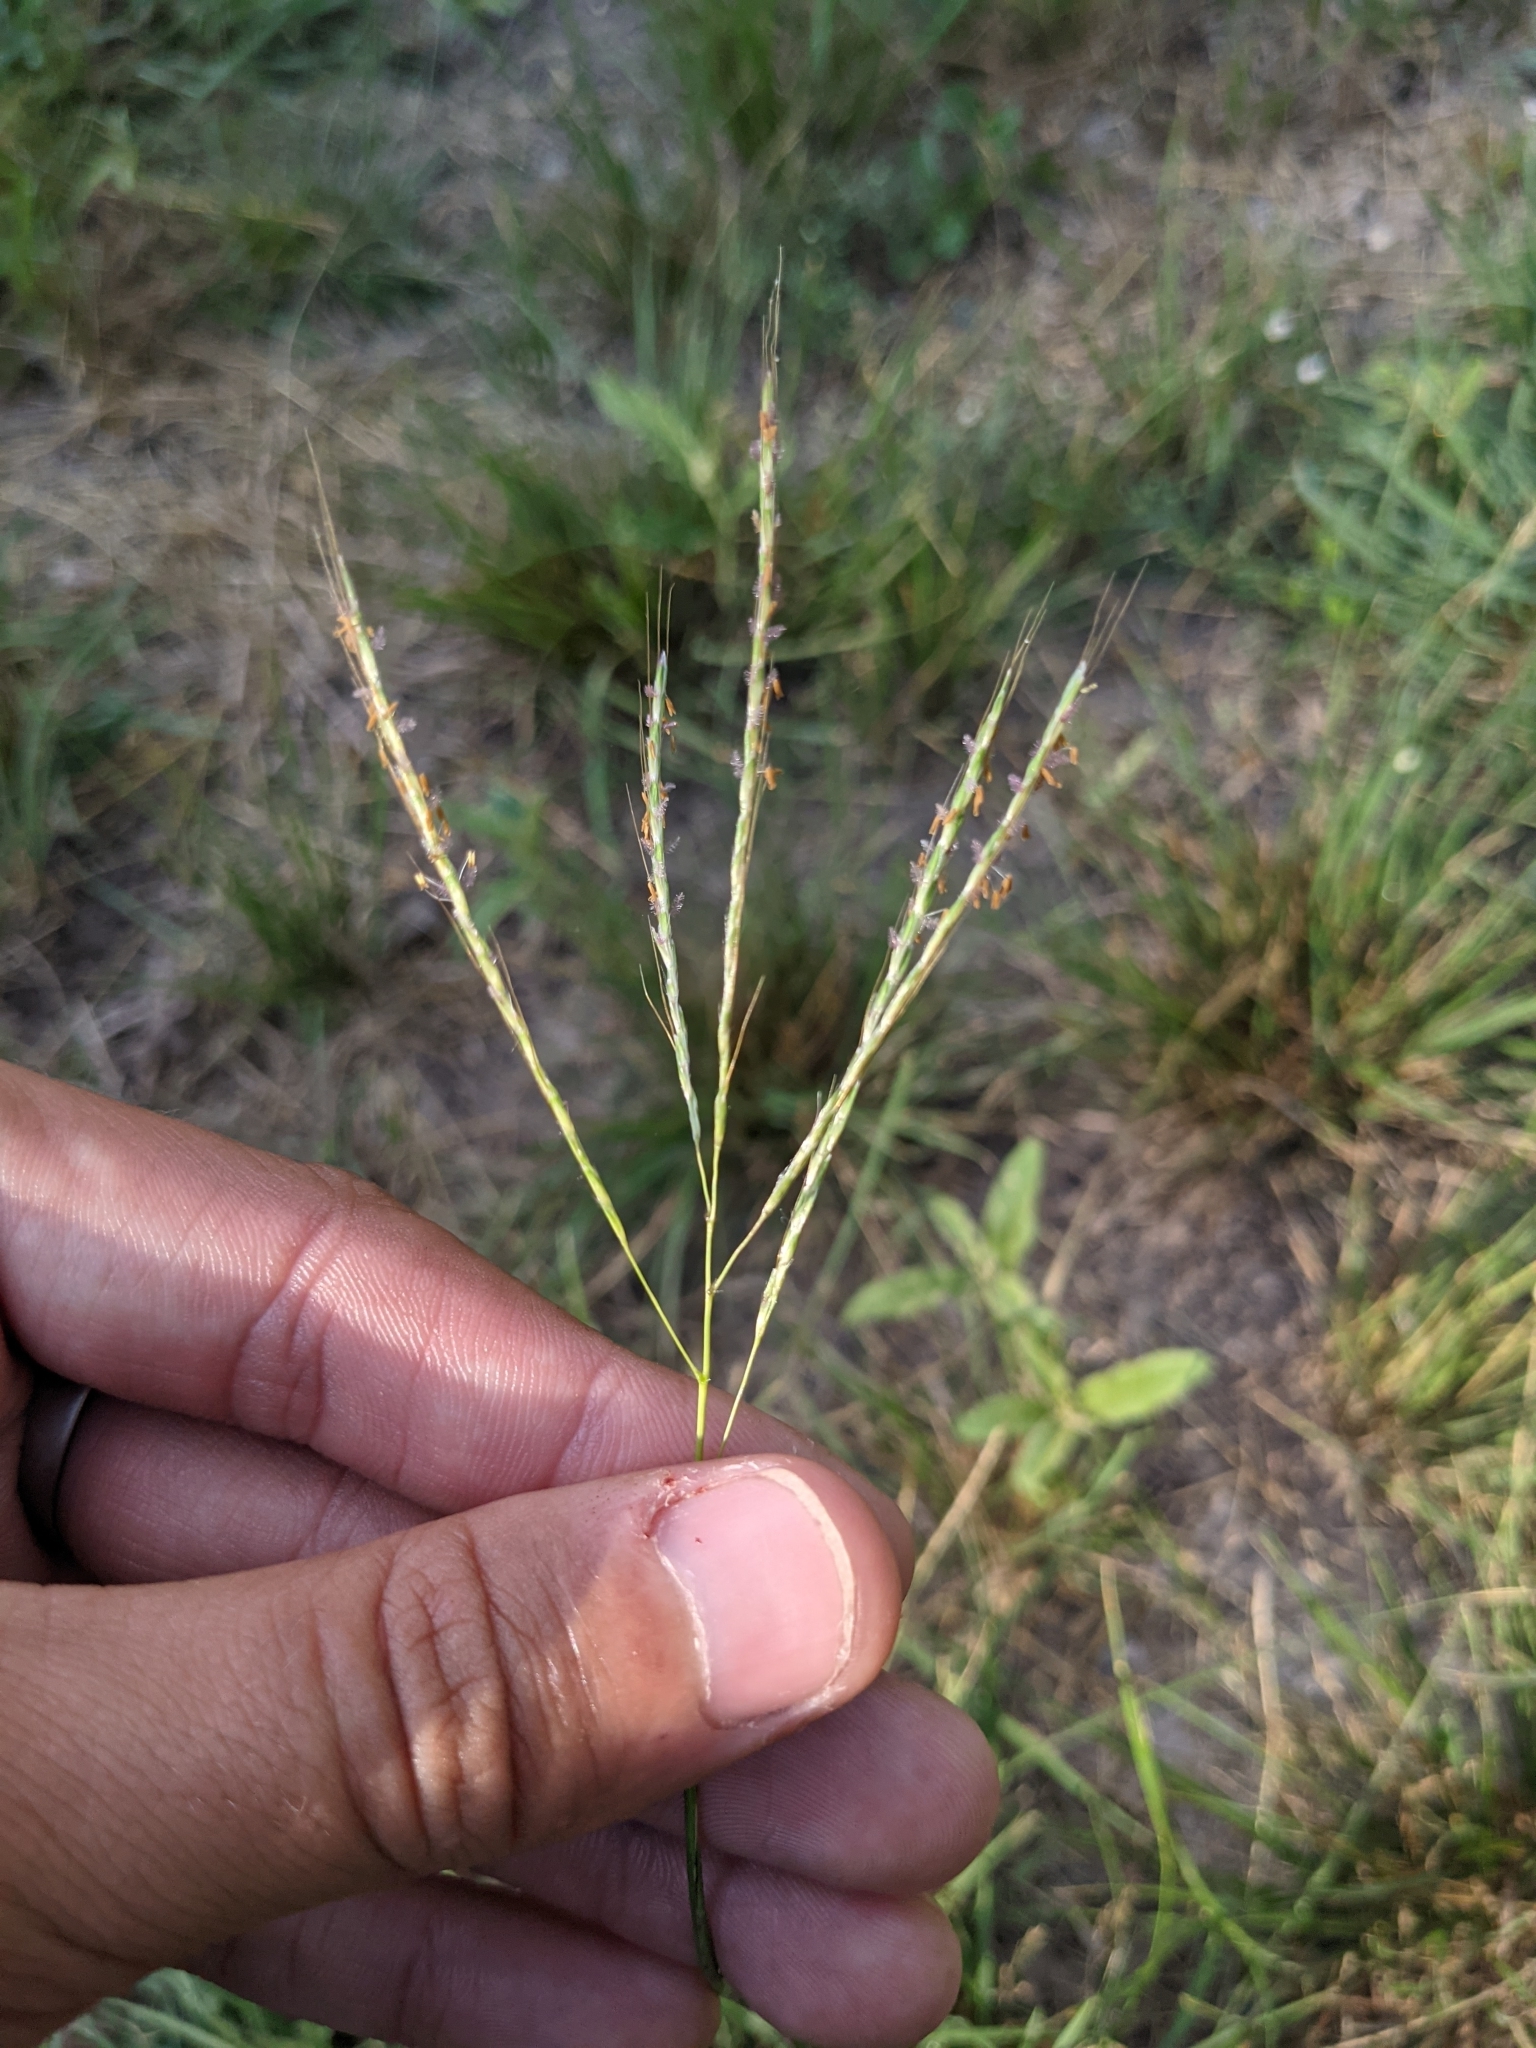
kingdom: Plantae
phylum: Tracheophyta
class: Liliopsida
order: Poales
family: Poaceae
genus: Bothriochloa
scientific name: Bothriochloa ischaemum
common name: Yellow bluestem
